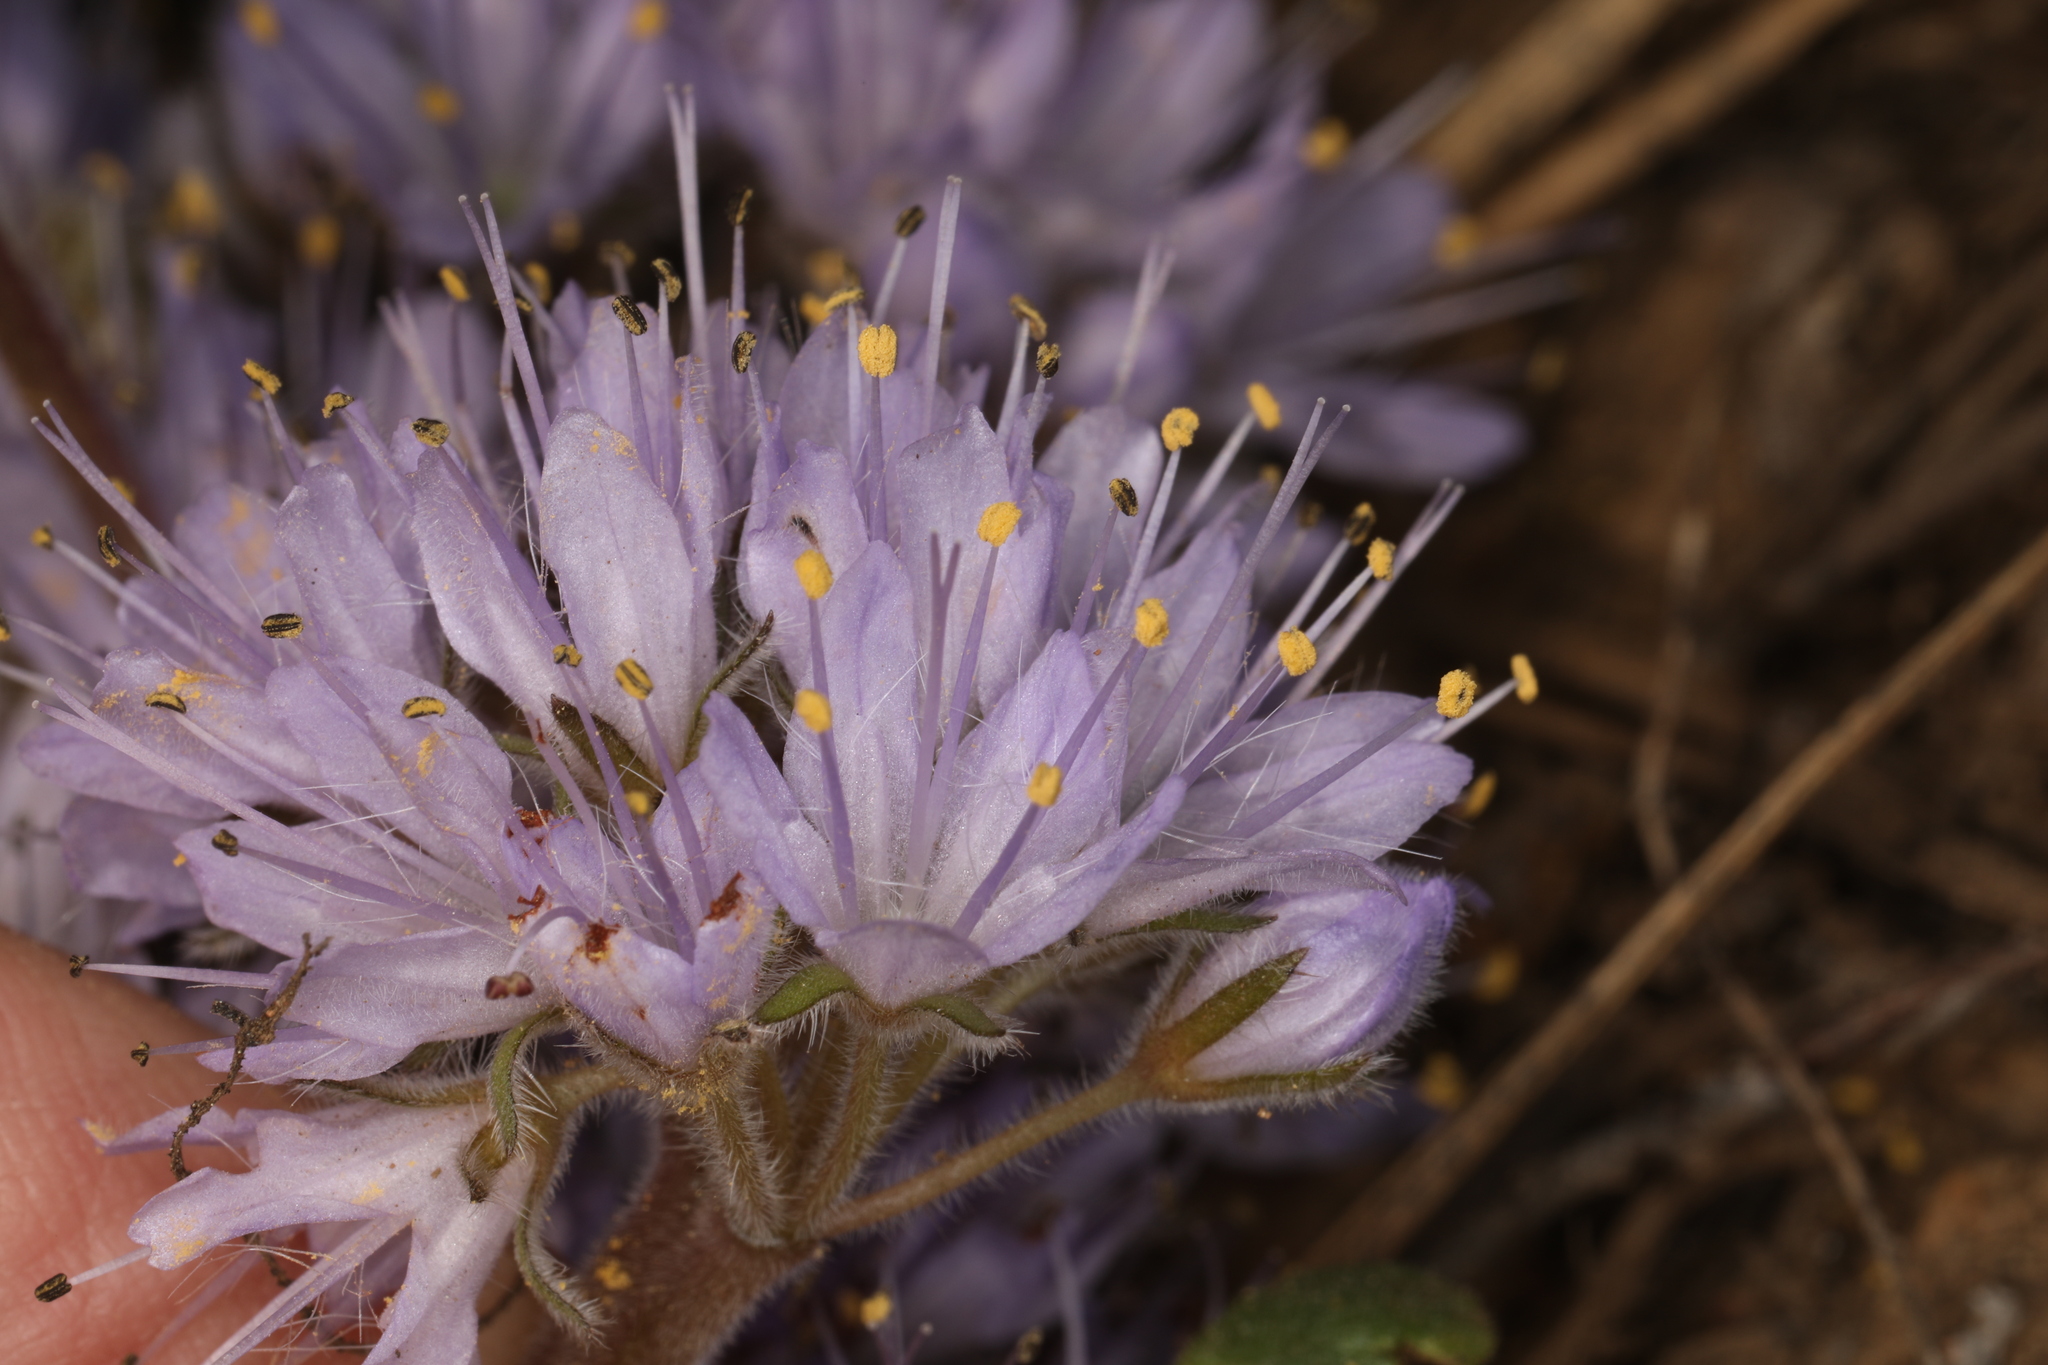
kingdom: Plantae
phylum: Tracheophyta
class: Magnoliopsida
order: Boraginales
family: Hydrophyllaceae
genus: Hydrophyllum
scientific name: Hydrophyllum alpestre
